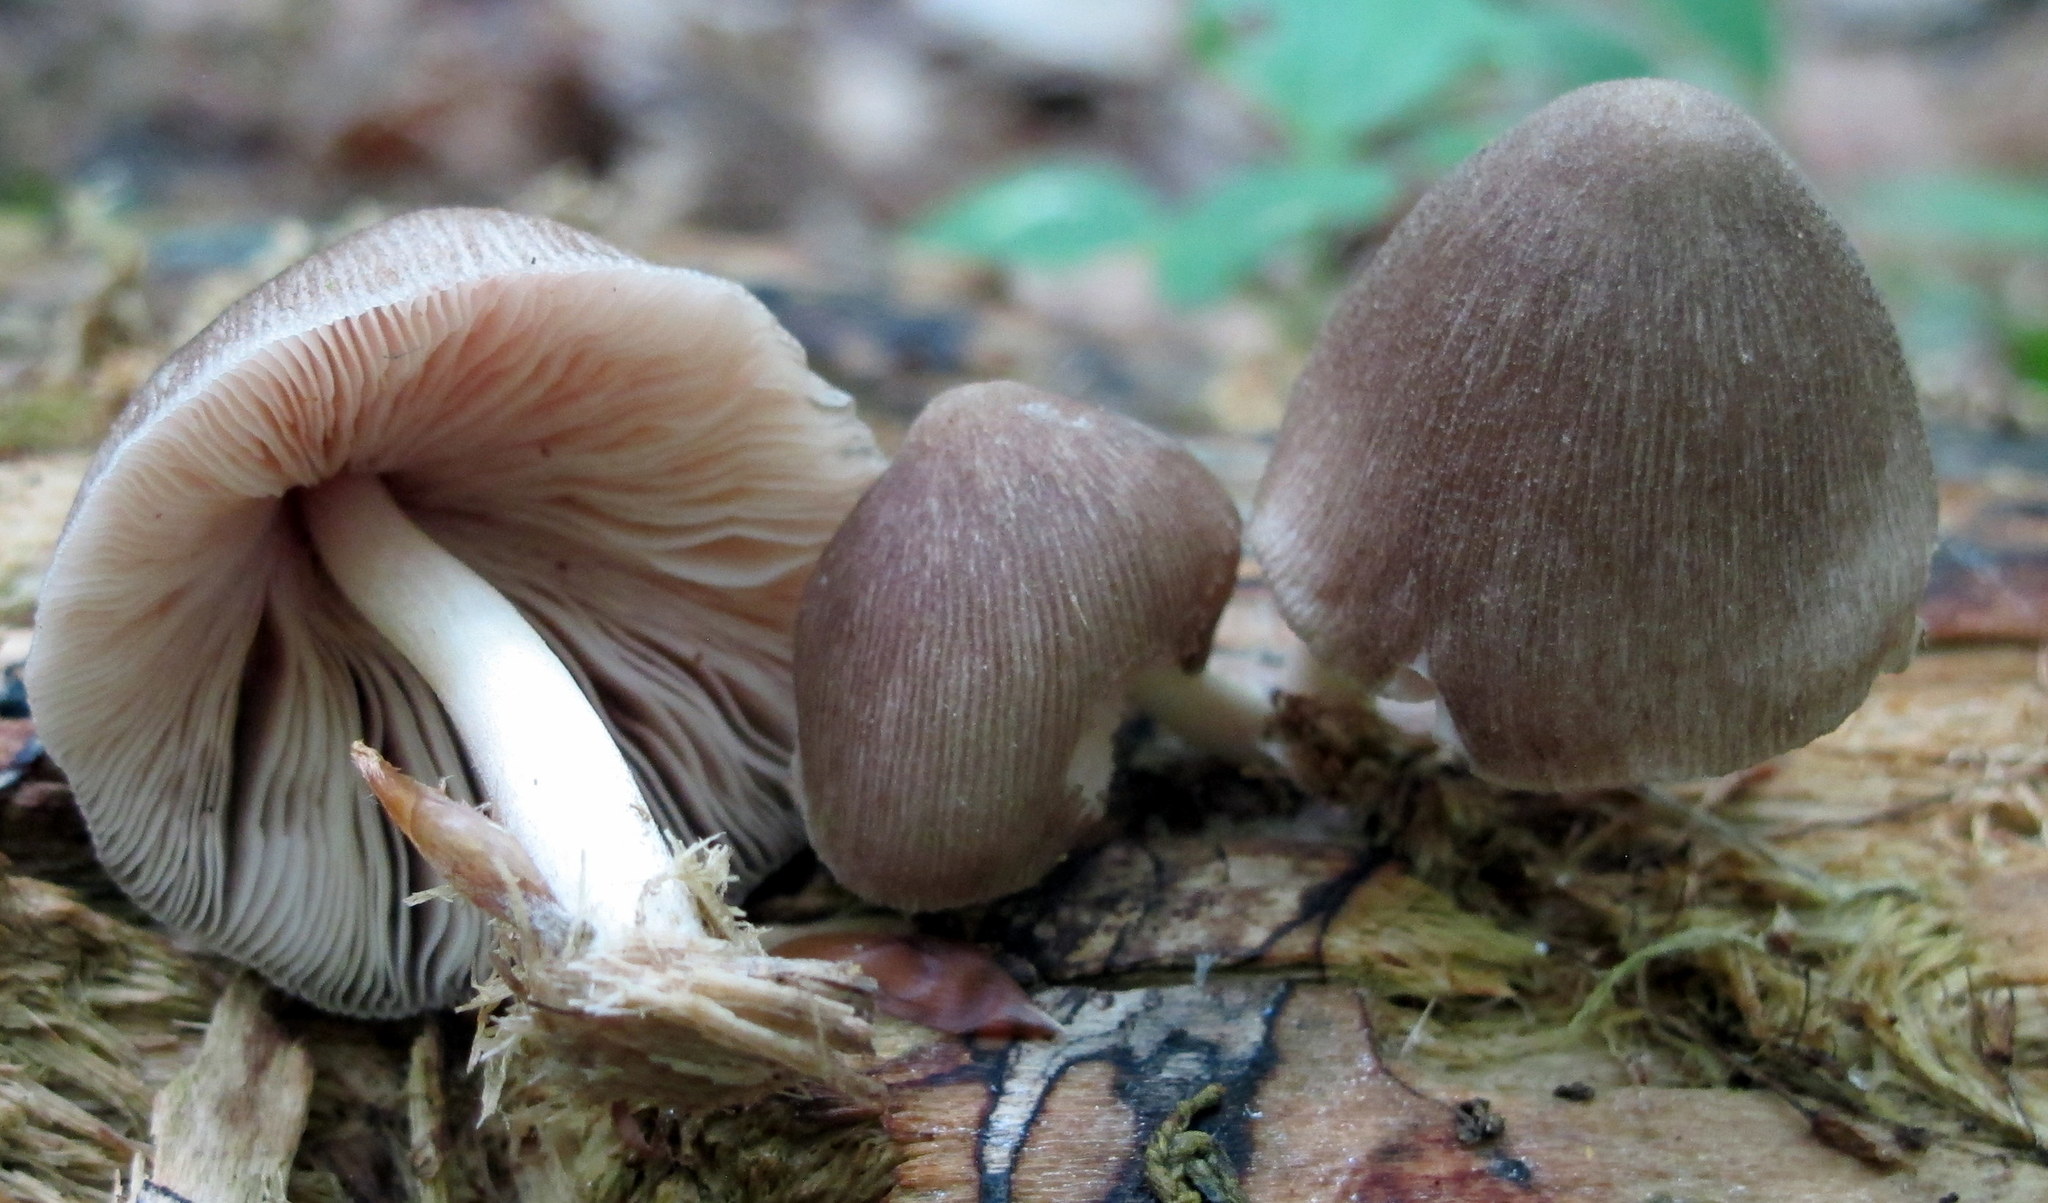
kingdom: Fungi
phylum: Basidiomycota
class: Agaricomycetes
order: Agaricales
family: Pluteaceae
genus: Pluteus
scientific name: Pluteus longistriatus
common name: Pleated pluteus
